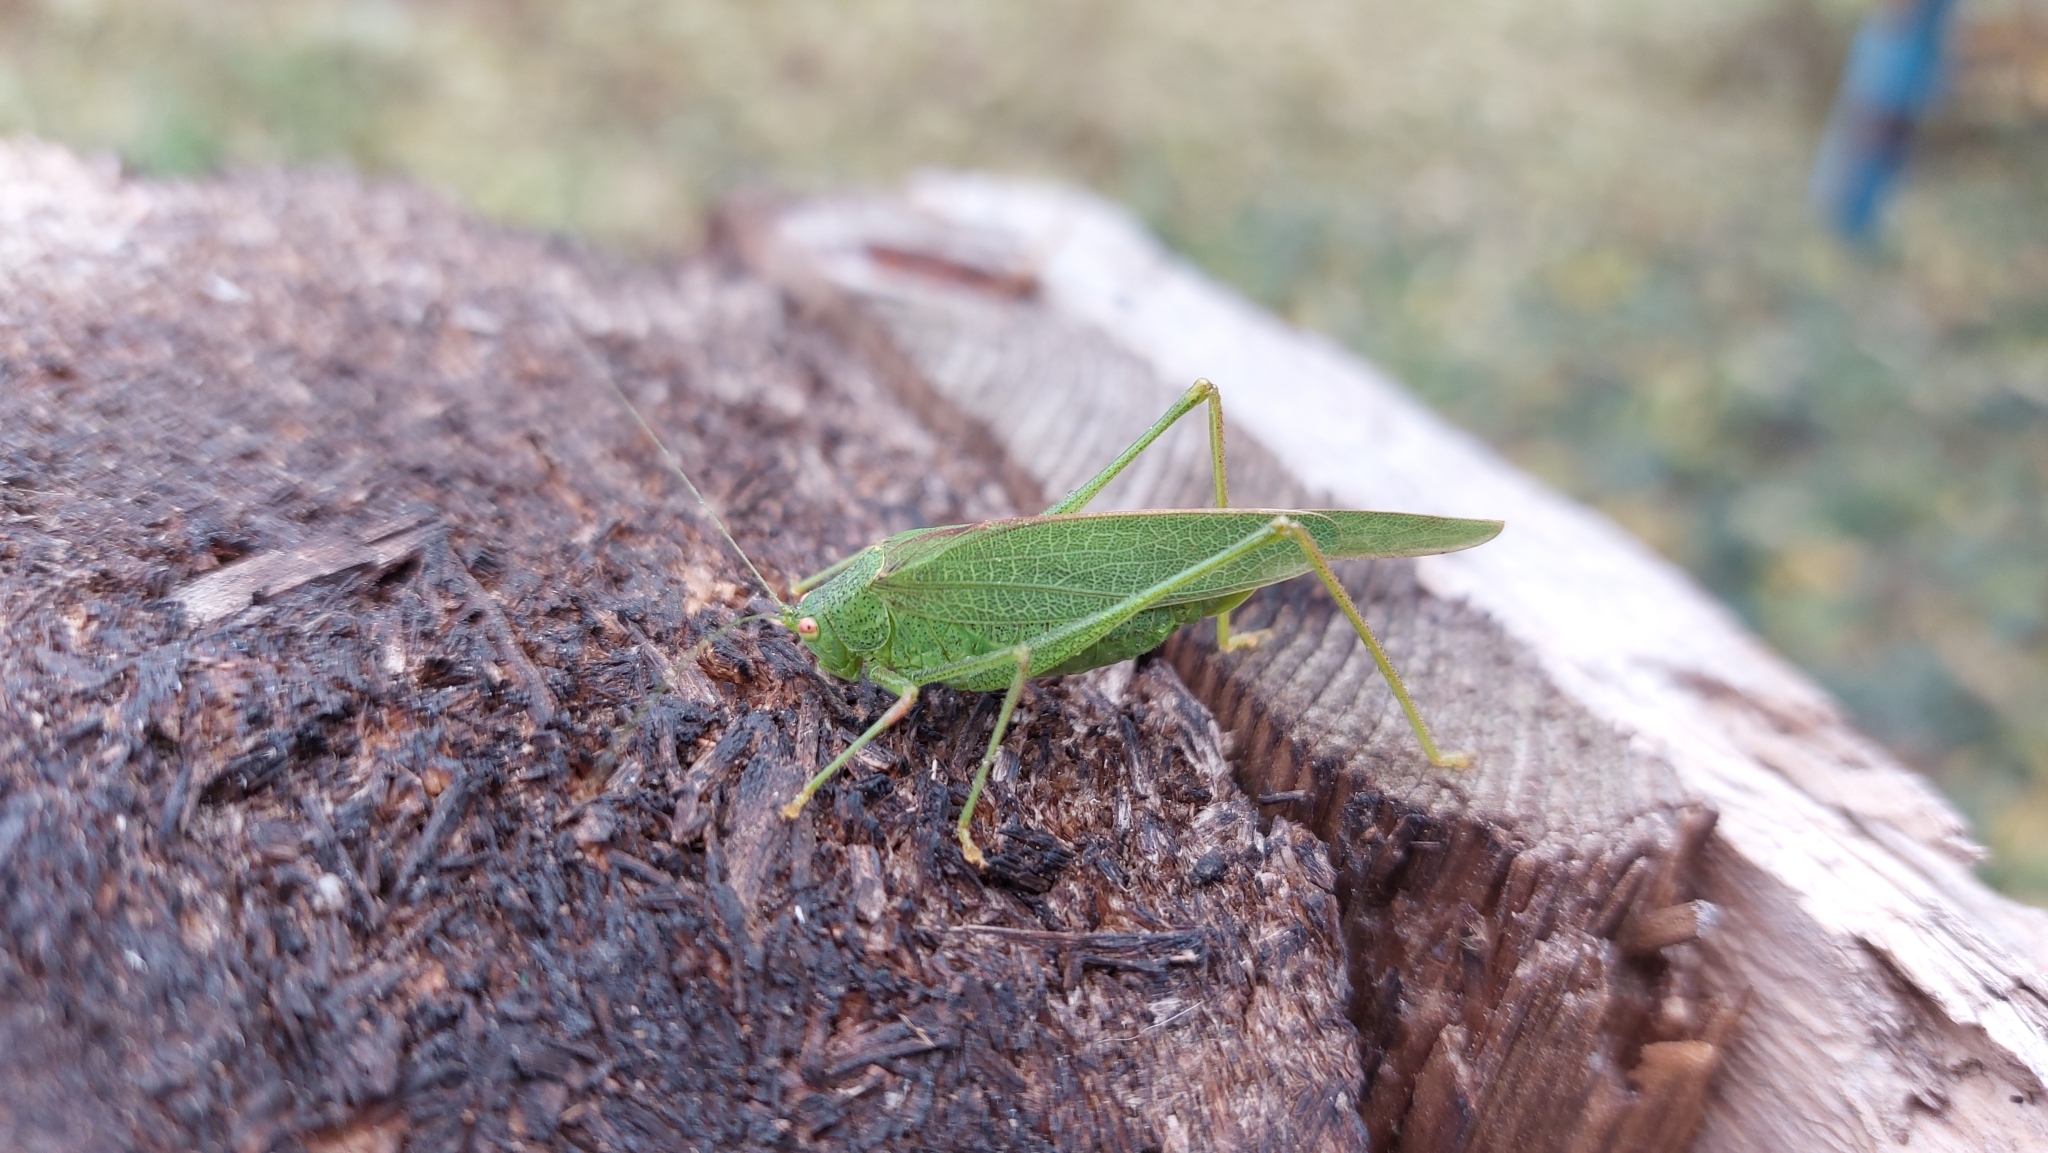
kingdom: Animalia
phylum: Arthropoda
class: Insecta
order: Orthoptera
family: Tettigoniidae
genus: Phaneroptera
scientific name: Phaneroptera nana
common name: Southern sickle bush-cricket
